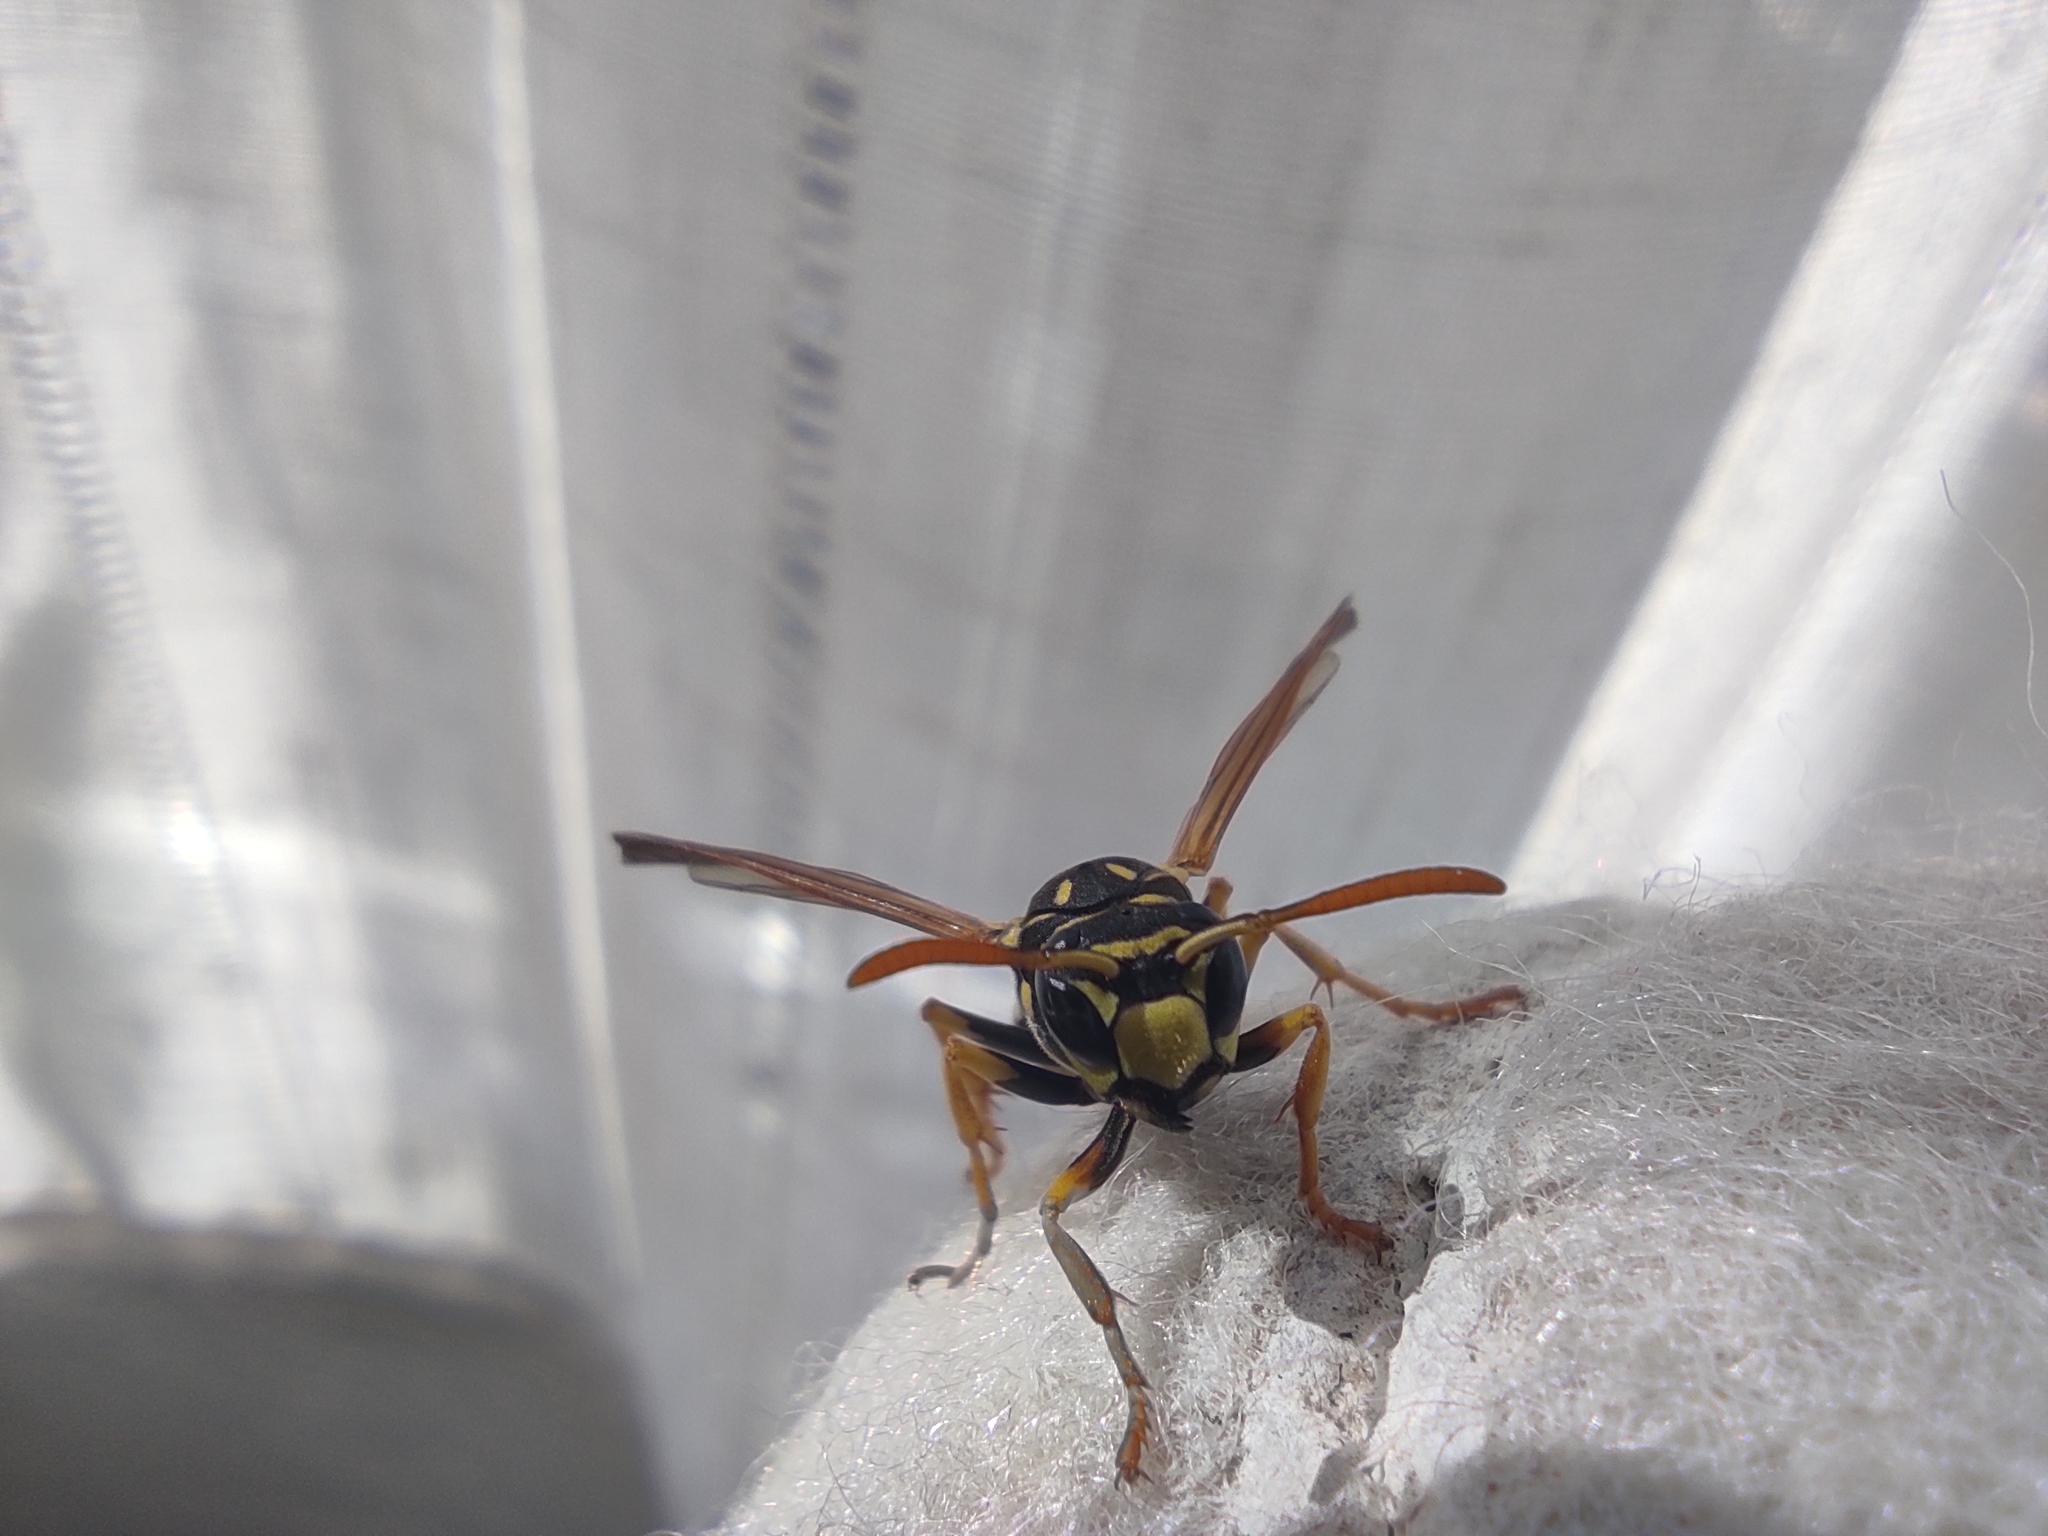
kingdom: Animalia
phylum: Arthropoda
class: Insecta
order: Hymenoptera
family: Eumenidae
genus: Polistes
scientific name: Polistes dominula
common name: Paper wasp
